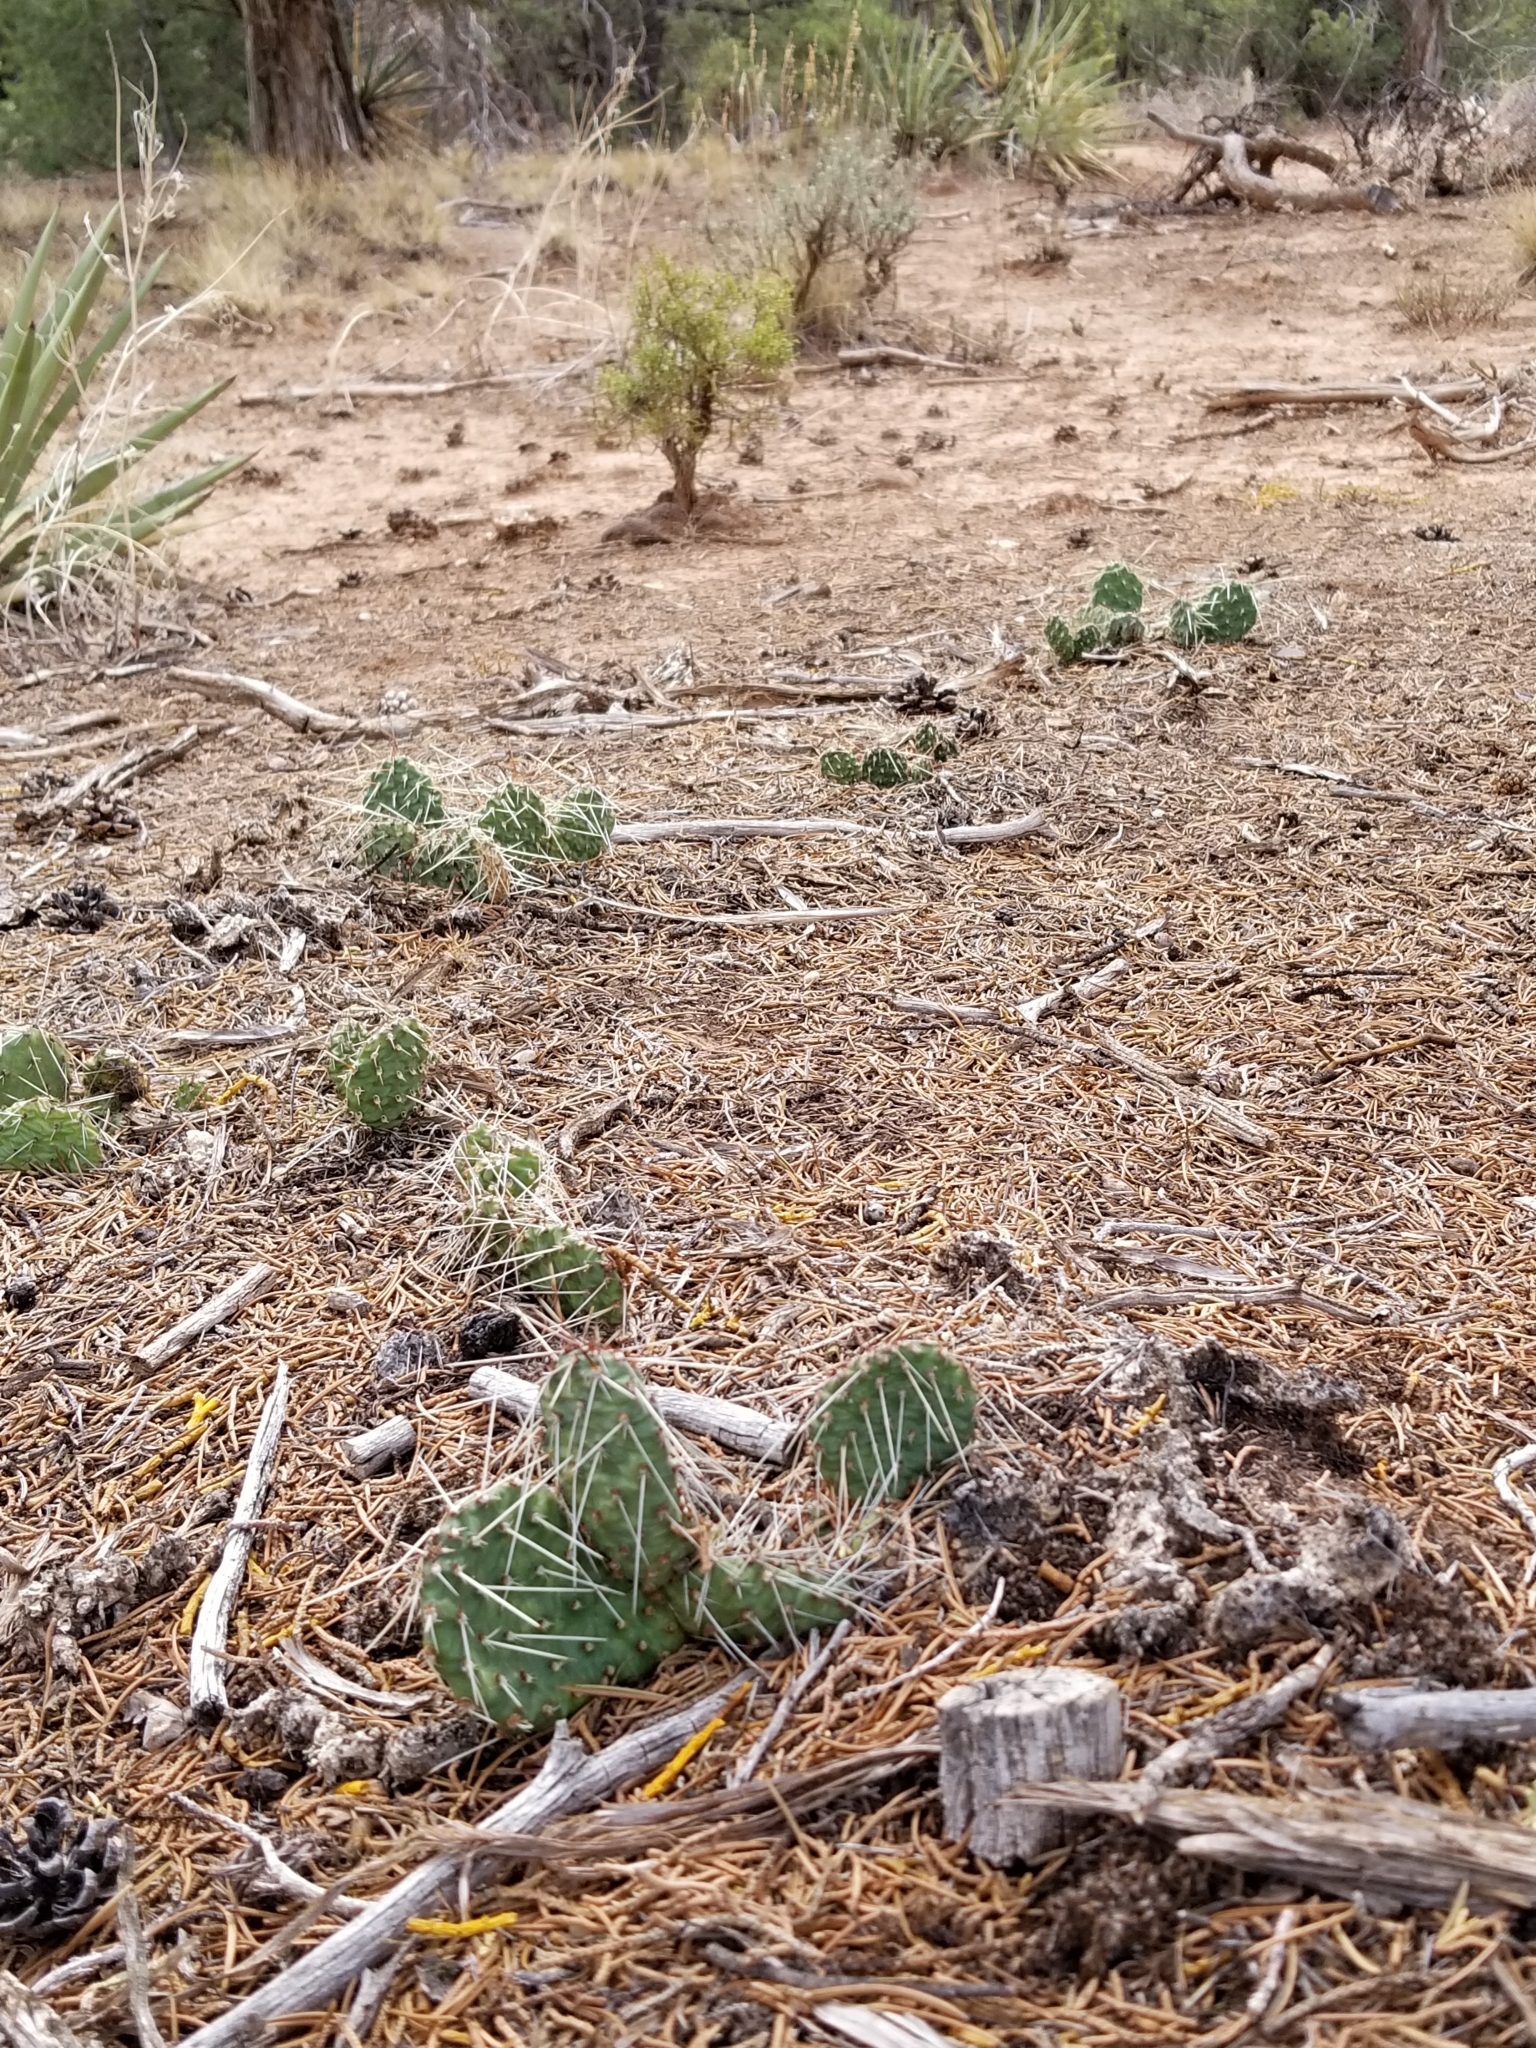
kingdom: Plantae
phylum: Tracheophyta
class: Magnoliopsida
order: Caryophyllales
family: Cactaceae
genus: Opuntia
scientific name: Opuntia polyacantha
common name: Plains prickly-pear
